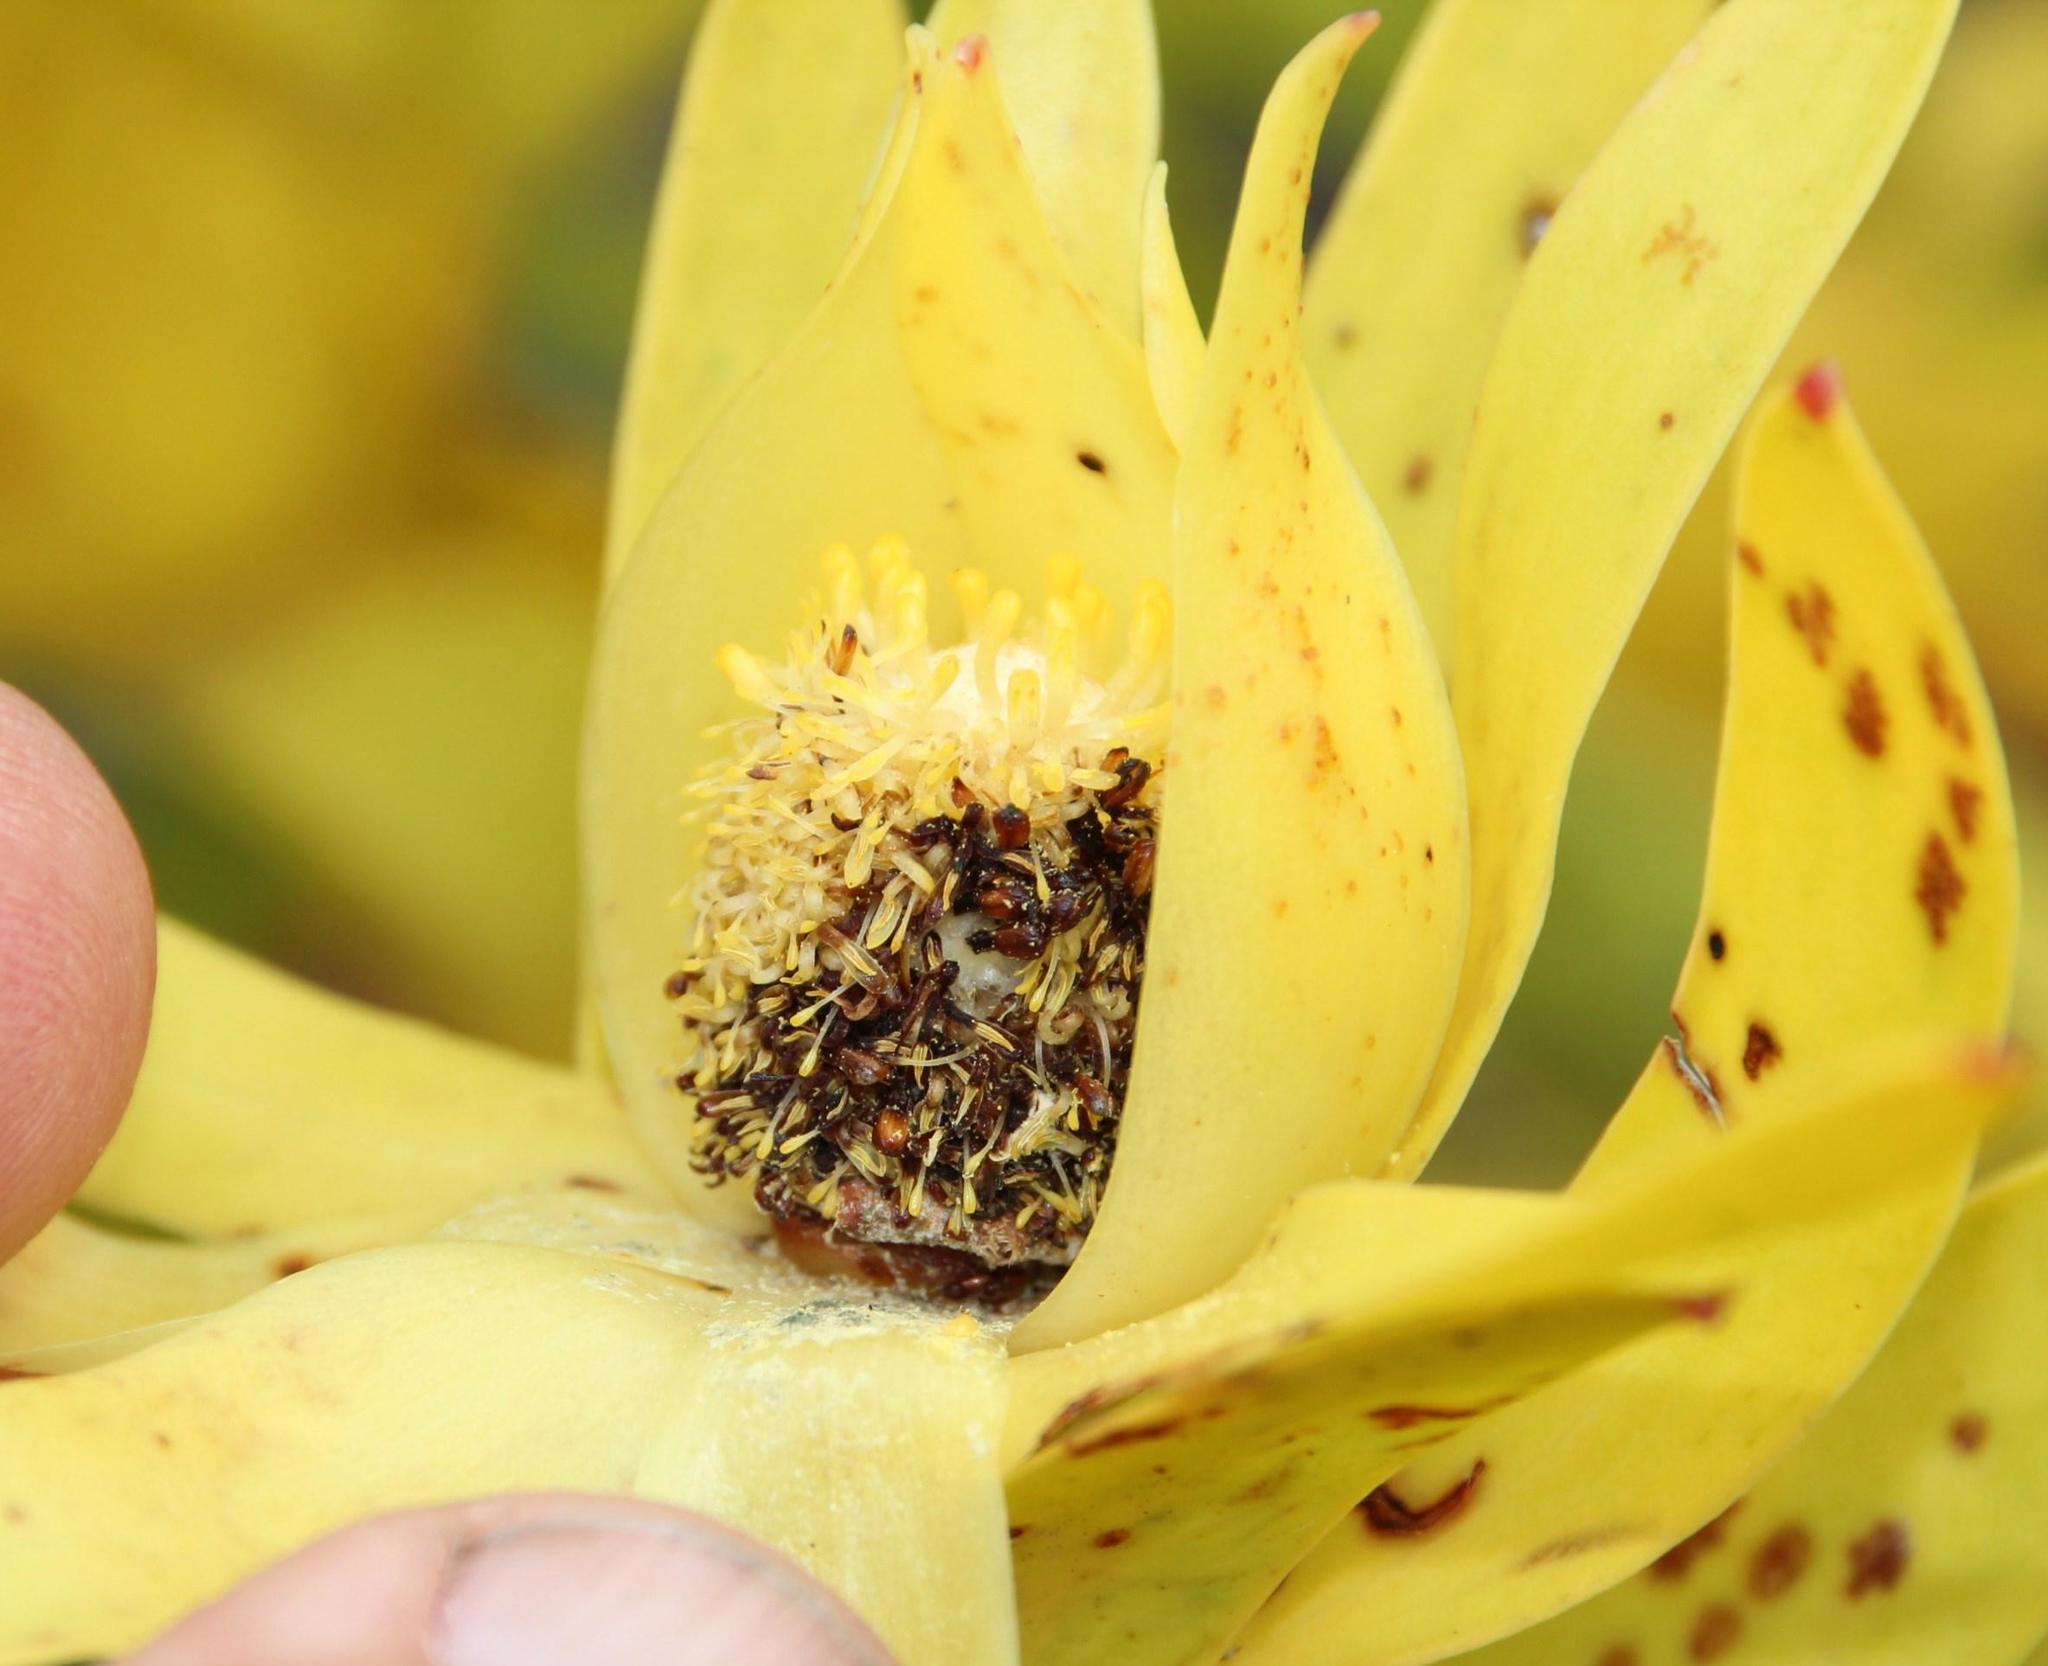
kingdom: Plantae
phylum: Tracheophyta
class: Magnoliopsida
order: Proteales
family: Proteaceae
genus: Leucadendron
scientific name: Leucadendron laureolum
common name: Golden sunshinebush
